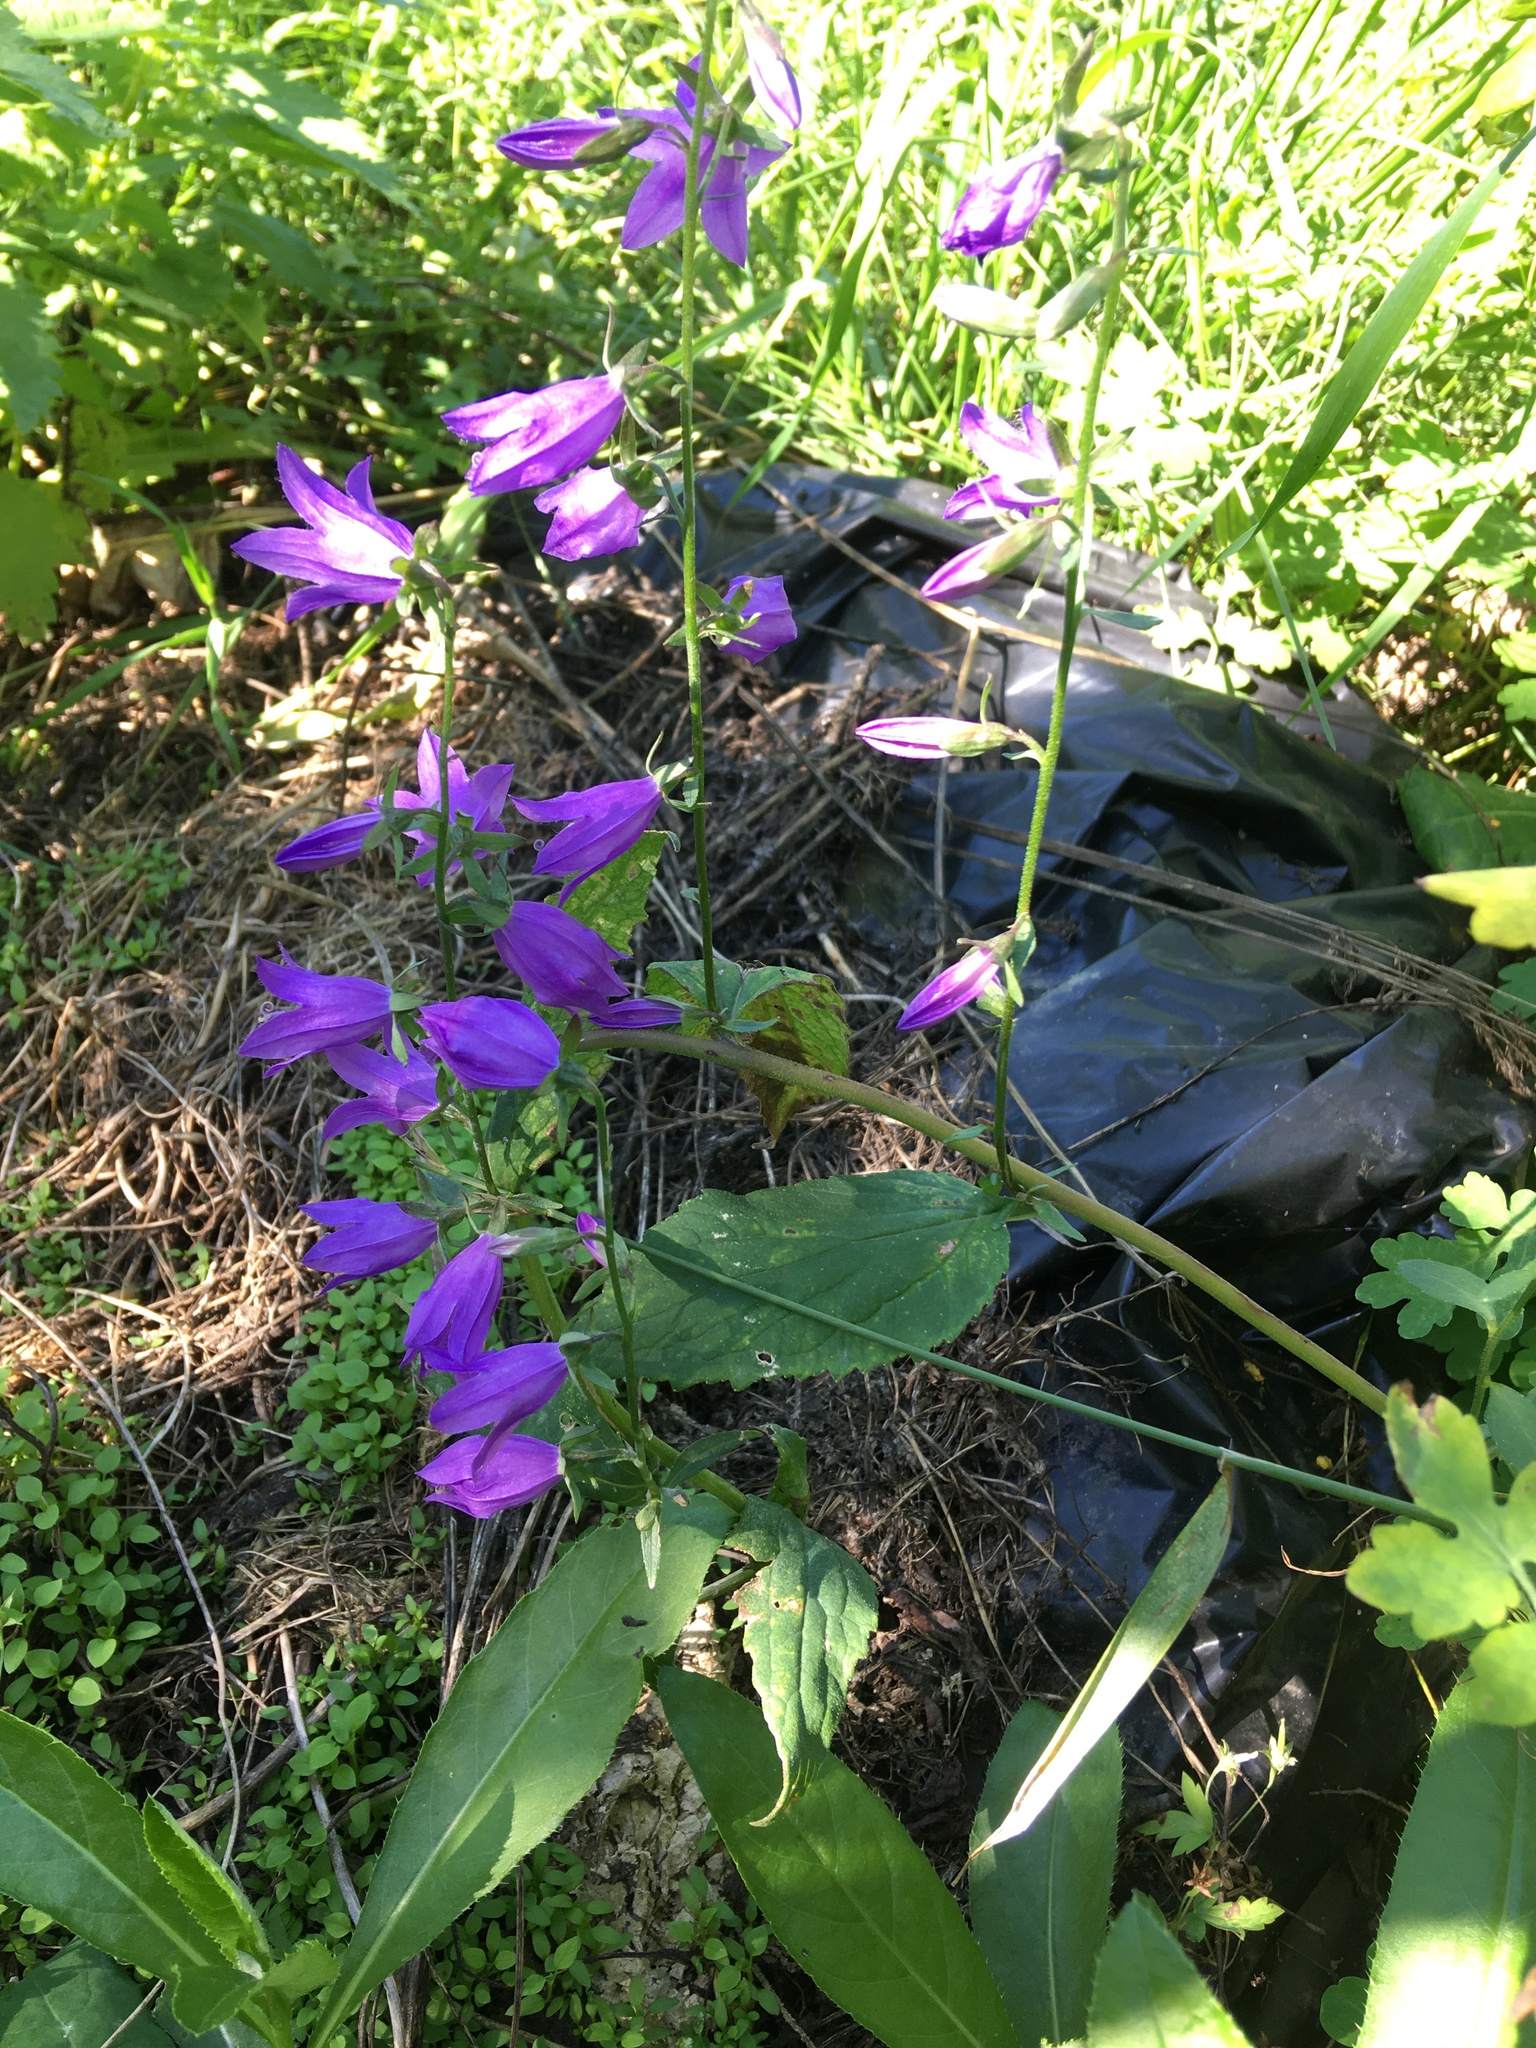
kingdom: Plantae
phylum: Tracheophyta
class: Magnoliopsida
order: Asterales
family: Campanulaceae
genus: Campanula
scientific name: Campanula rapunculoides
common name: Creeping bellflower
